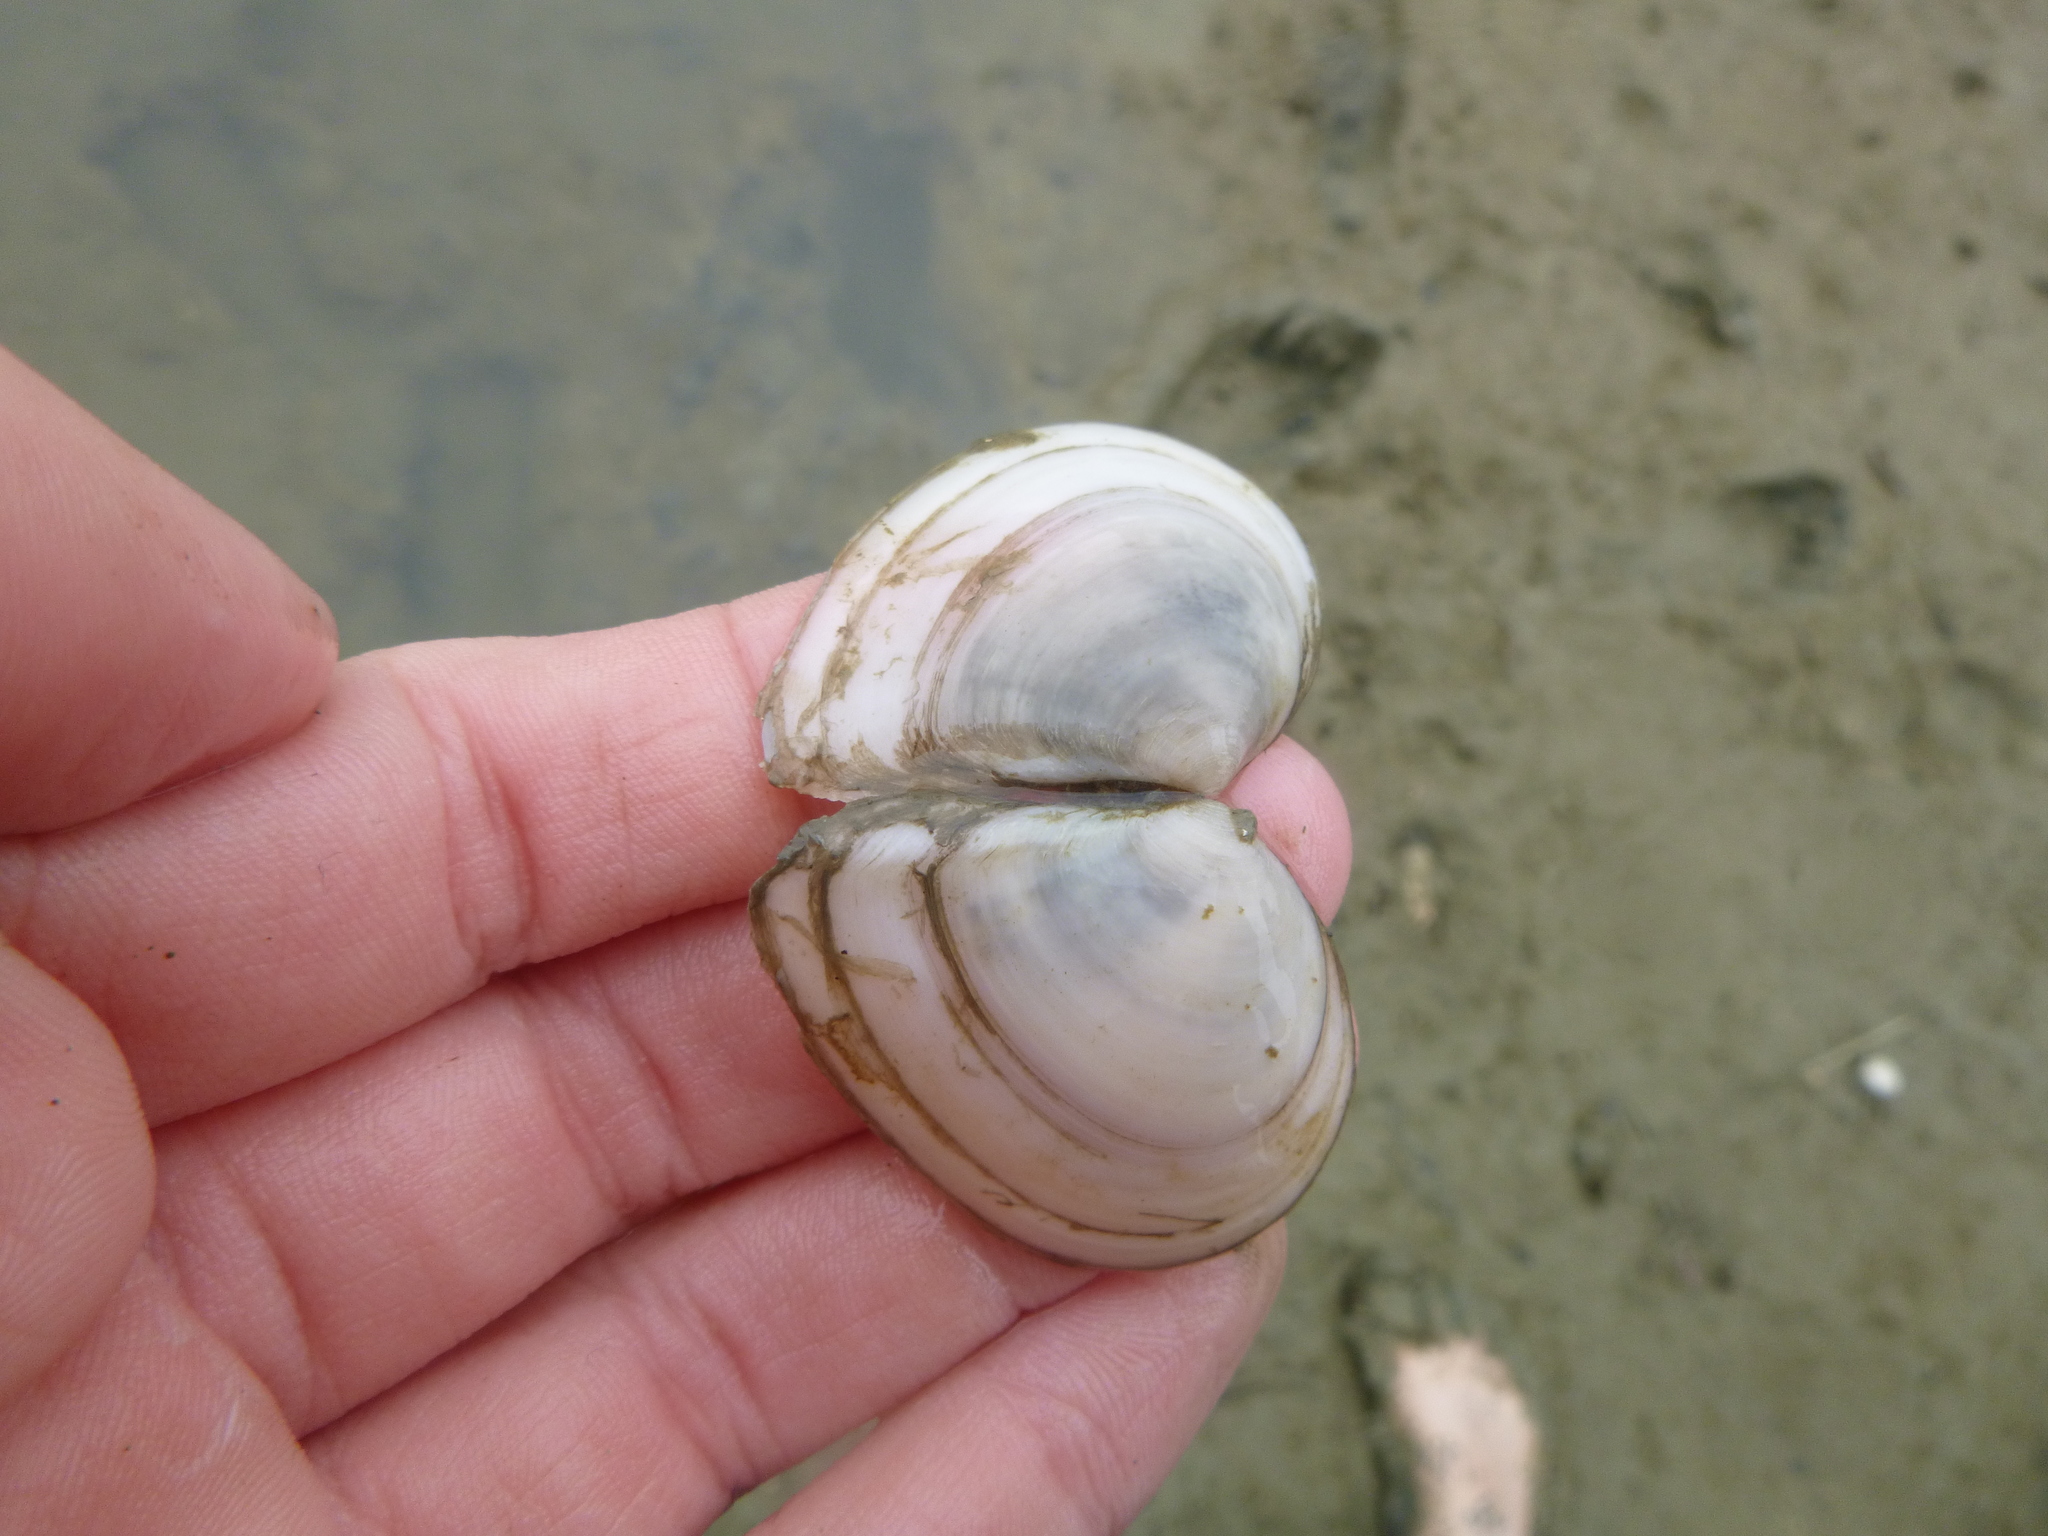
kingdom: Animalia
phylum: Mollusca
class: Bivalvia
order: Cardiida
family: Tellinidae
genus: Macomona
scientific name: Macomona liliana
